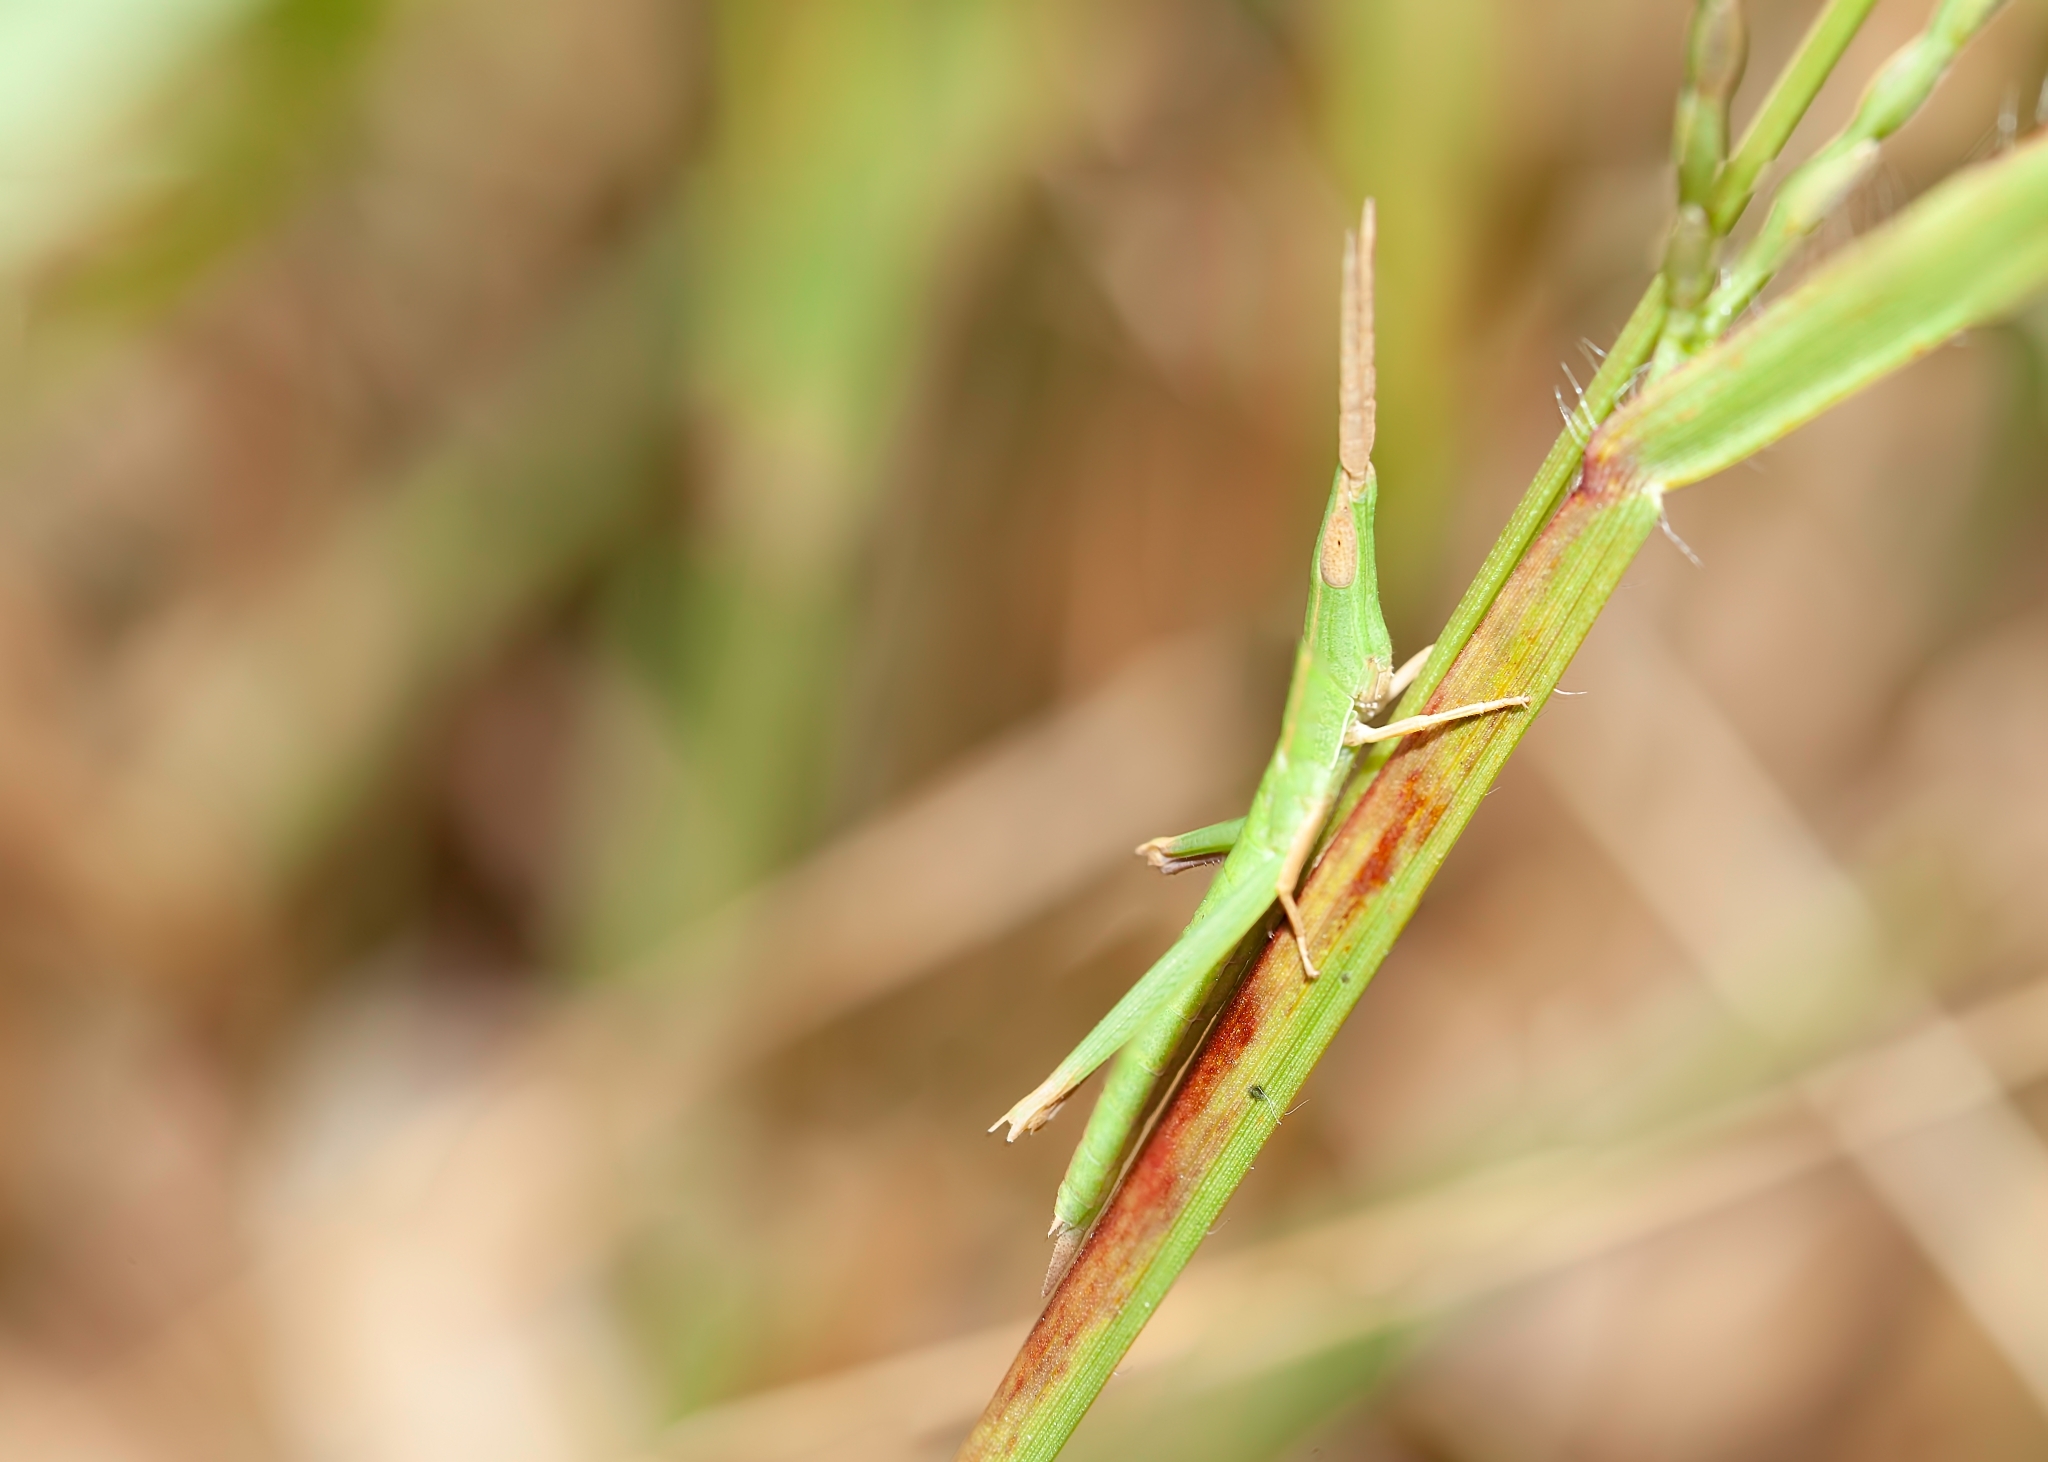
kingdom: Animalia
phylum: Arthropoda
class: Insecta
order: Orthoptera
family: Acrididae
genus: Achurum
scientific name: Achurum carinatum
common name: Long-headed toothpick grasshopper
